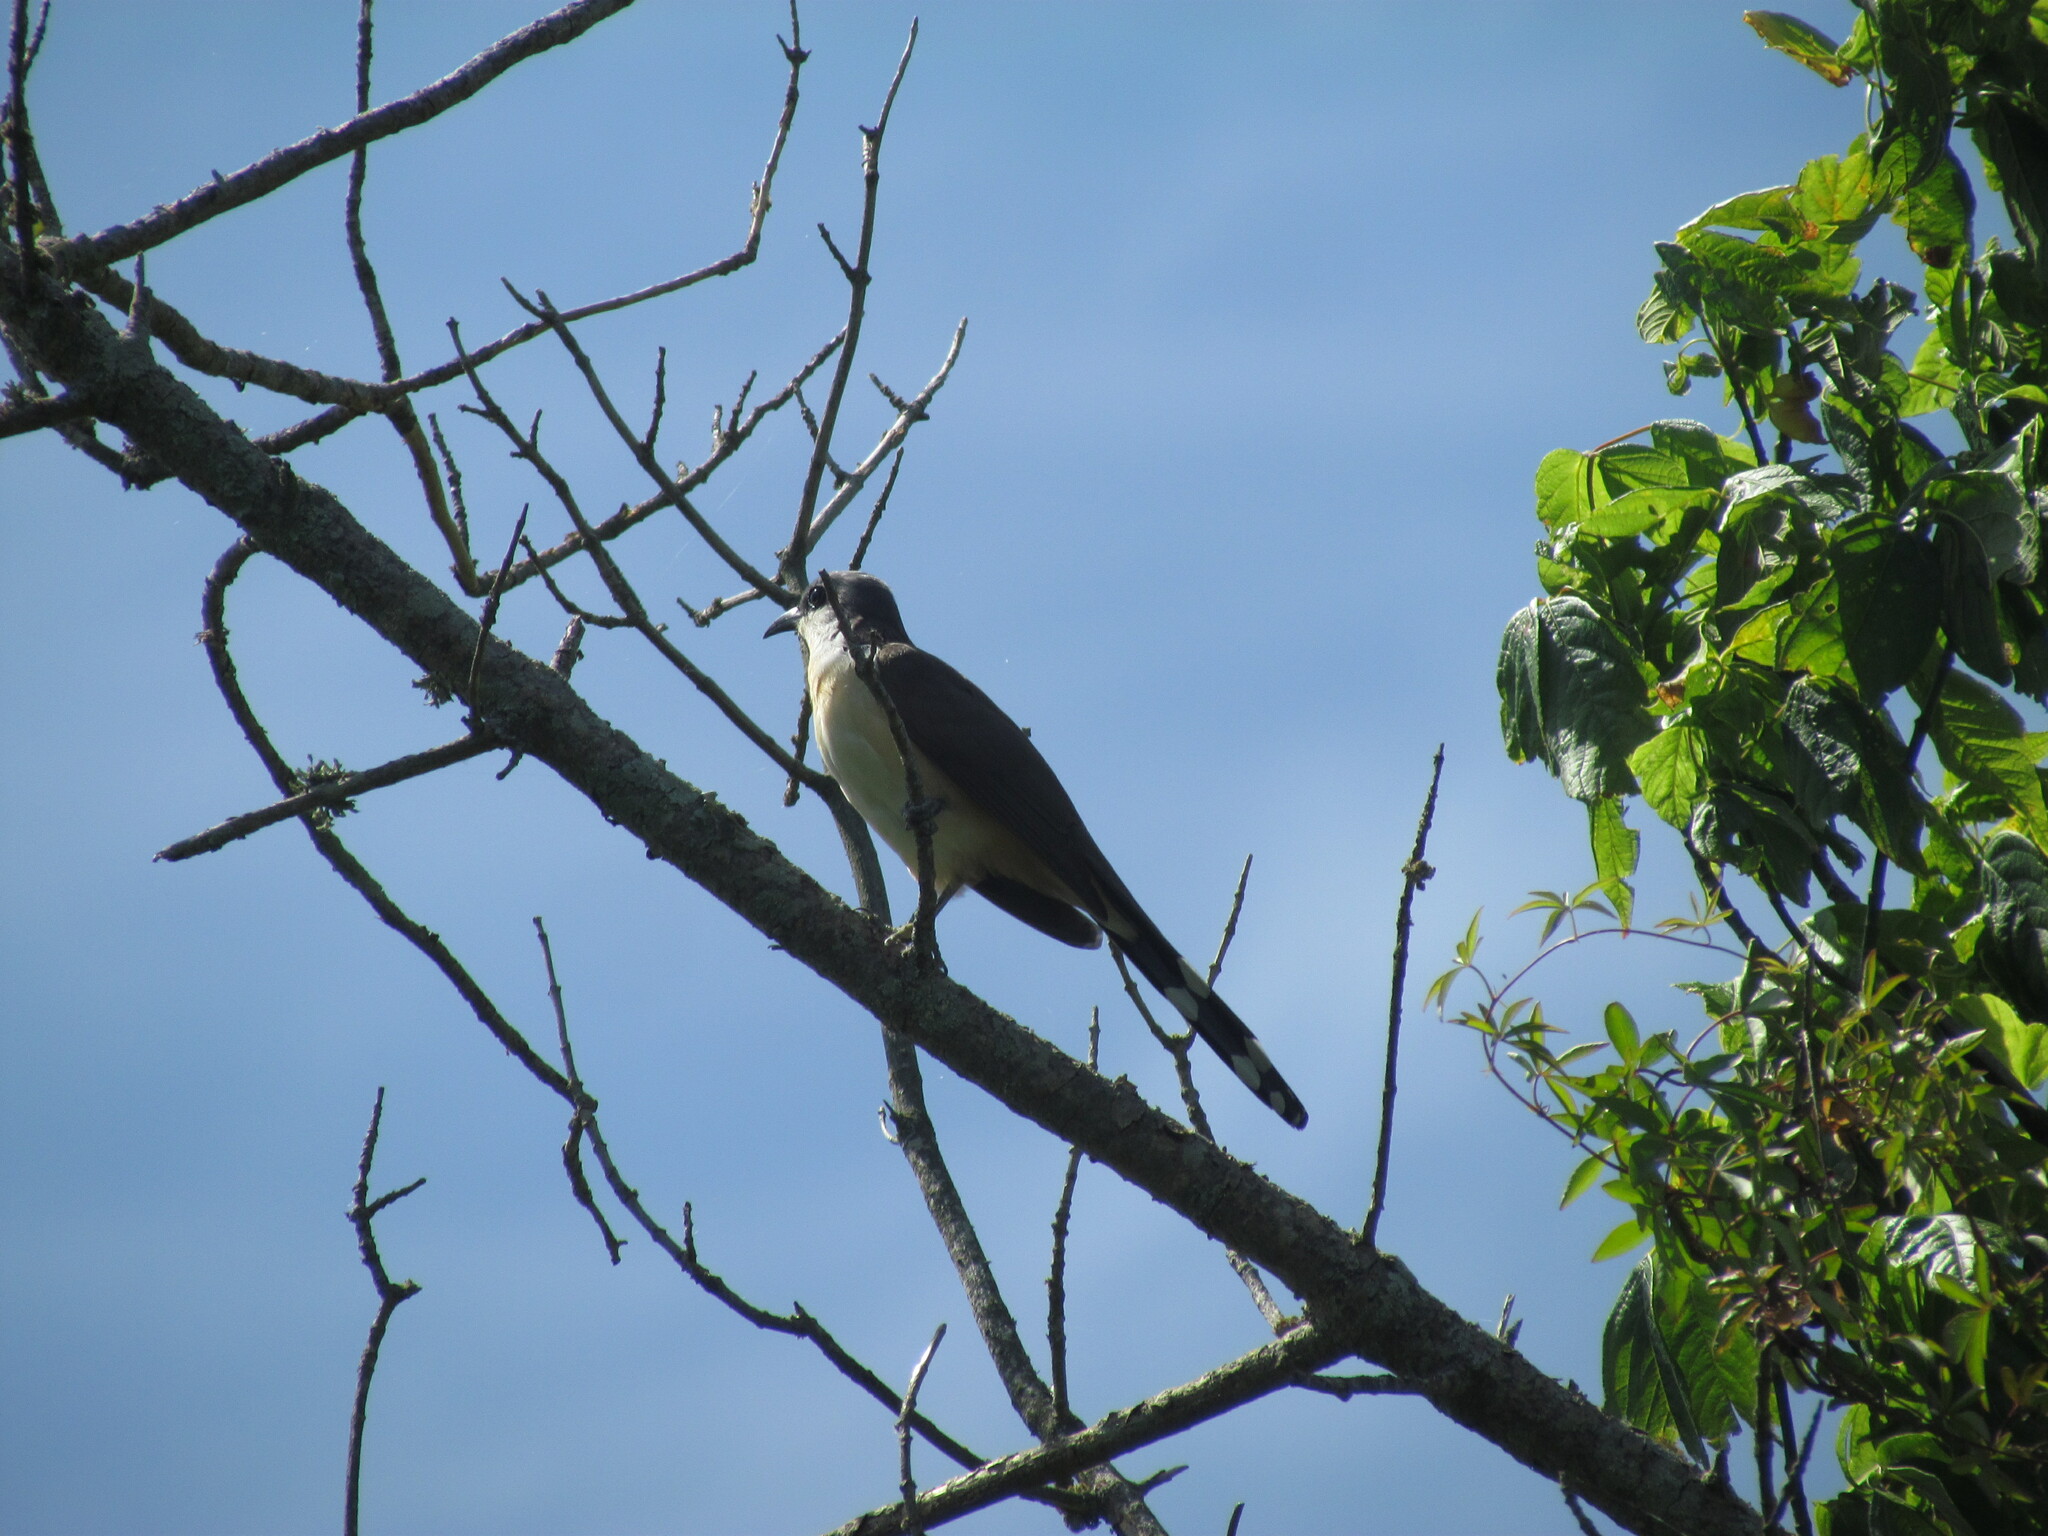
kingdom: Animalia
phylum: Chordata
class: Aves
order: Cuculiformes
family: Cuculidae
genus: Coccyzus
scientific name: Coccyzus melacoryphus
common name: Dark-billed cuckoo
